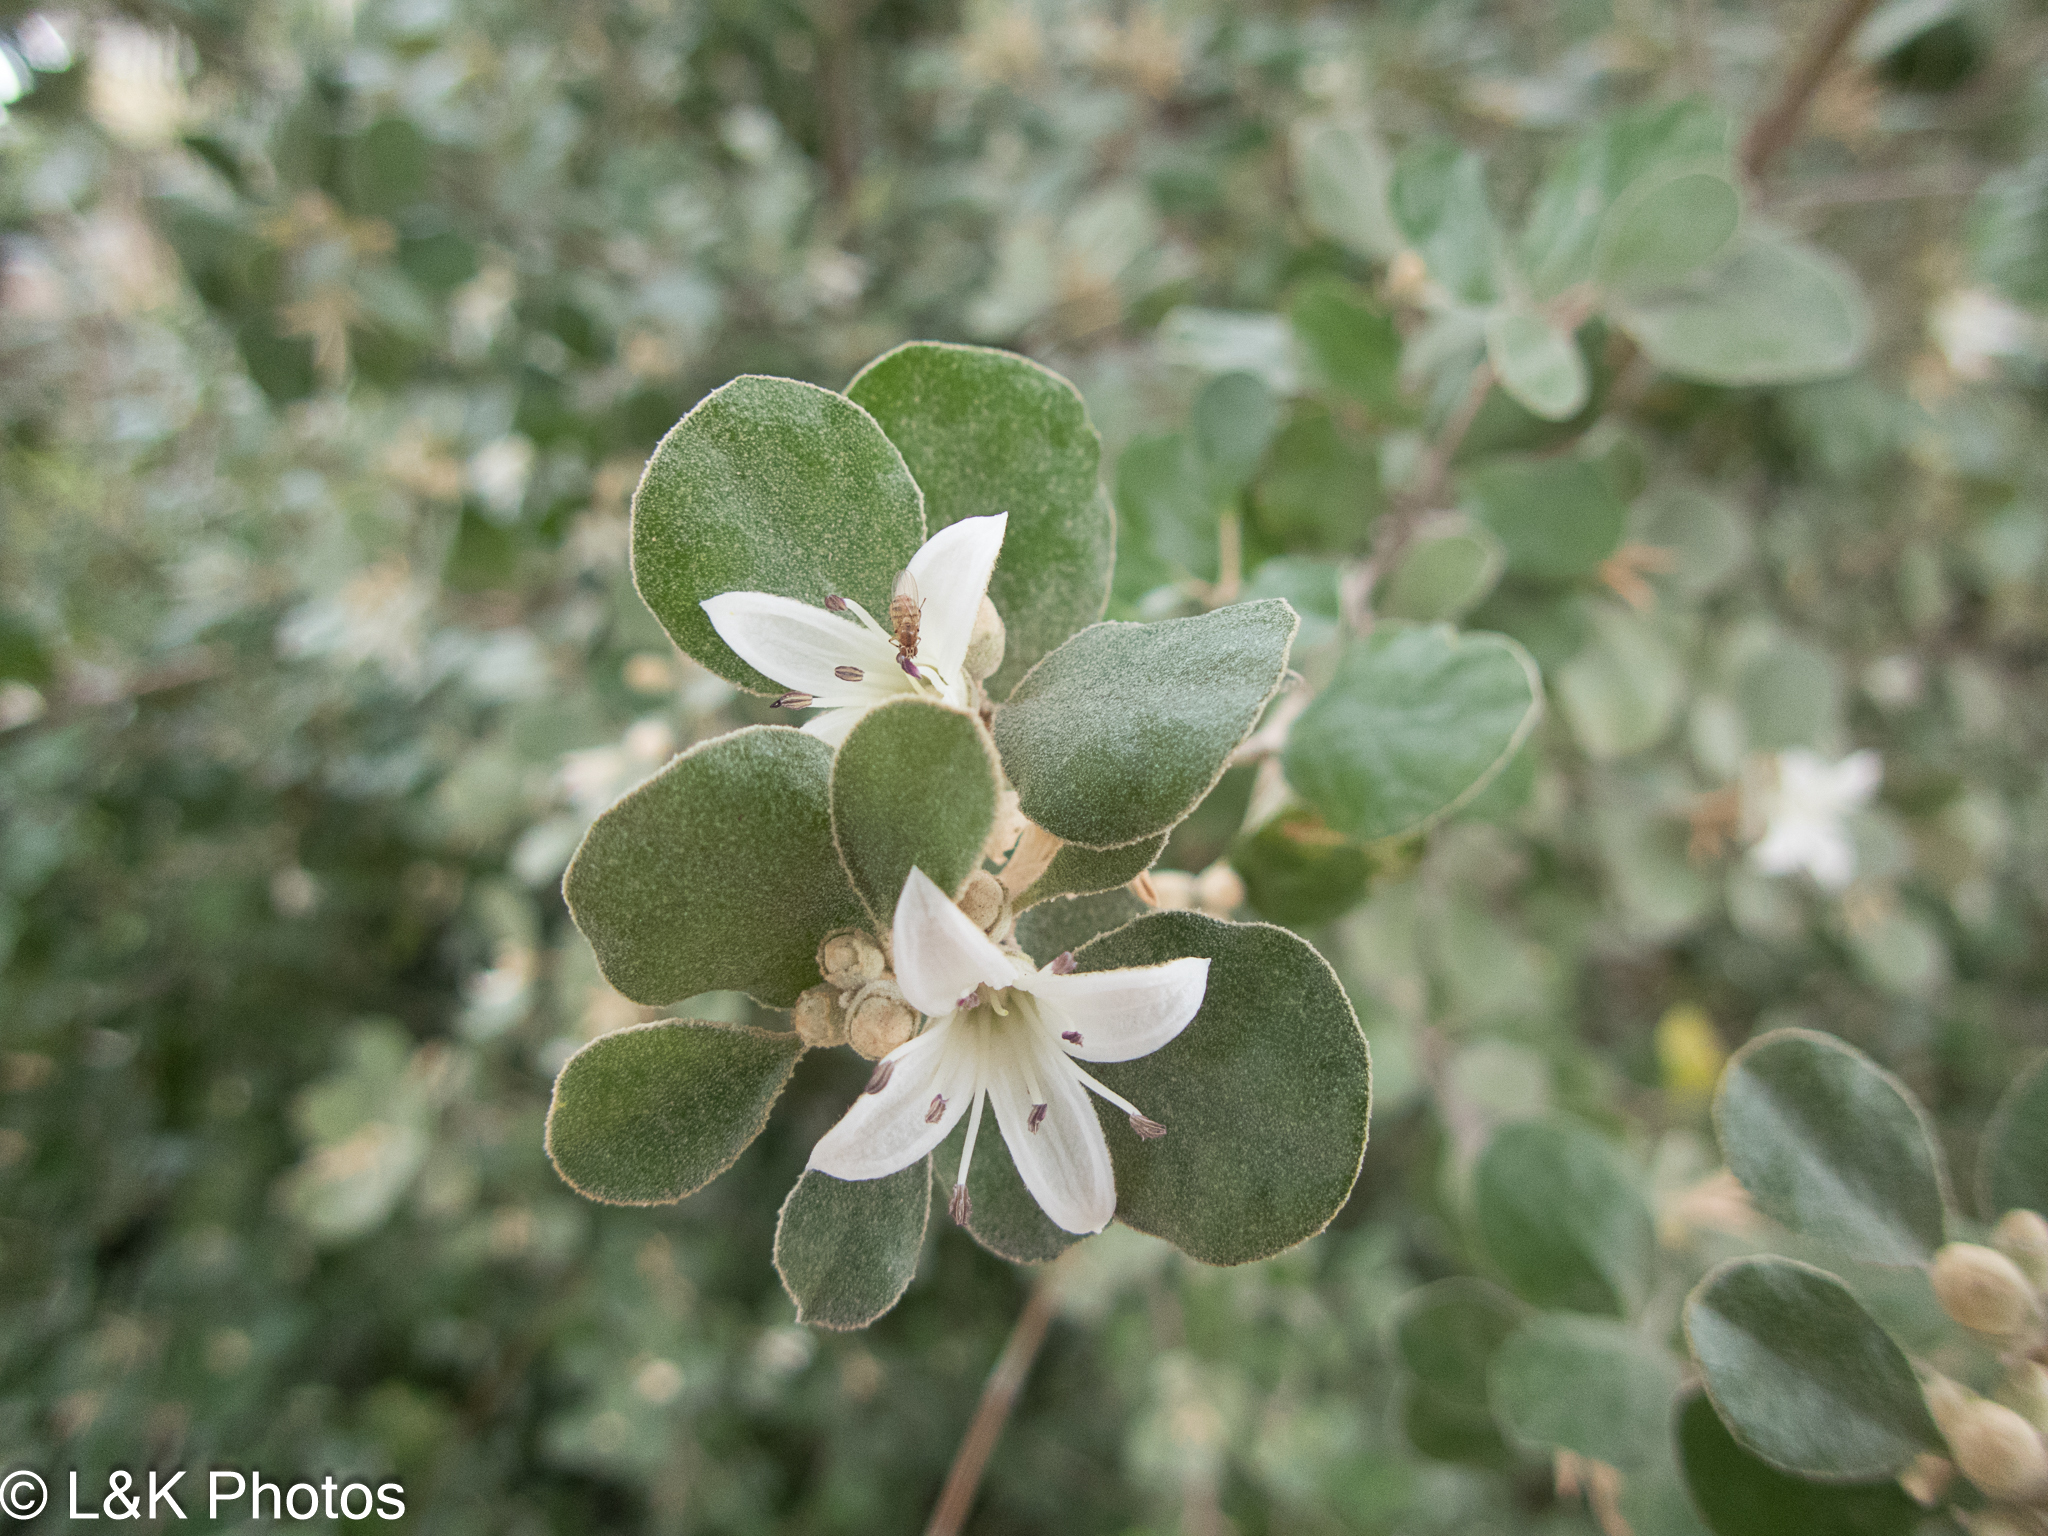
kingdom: Plantae
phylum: Tracheophyta
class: Magnoliopsida
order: Sapindales
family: Rutaceae
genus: Correa
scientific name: Correa alba
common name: White correa
